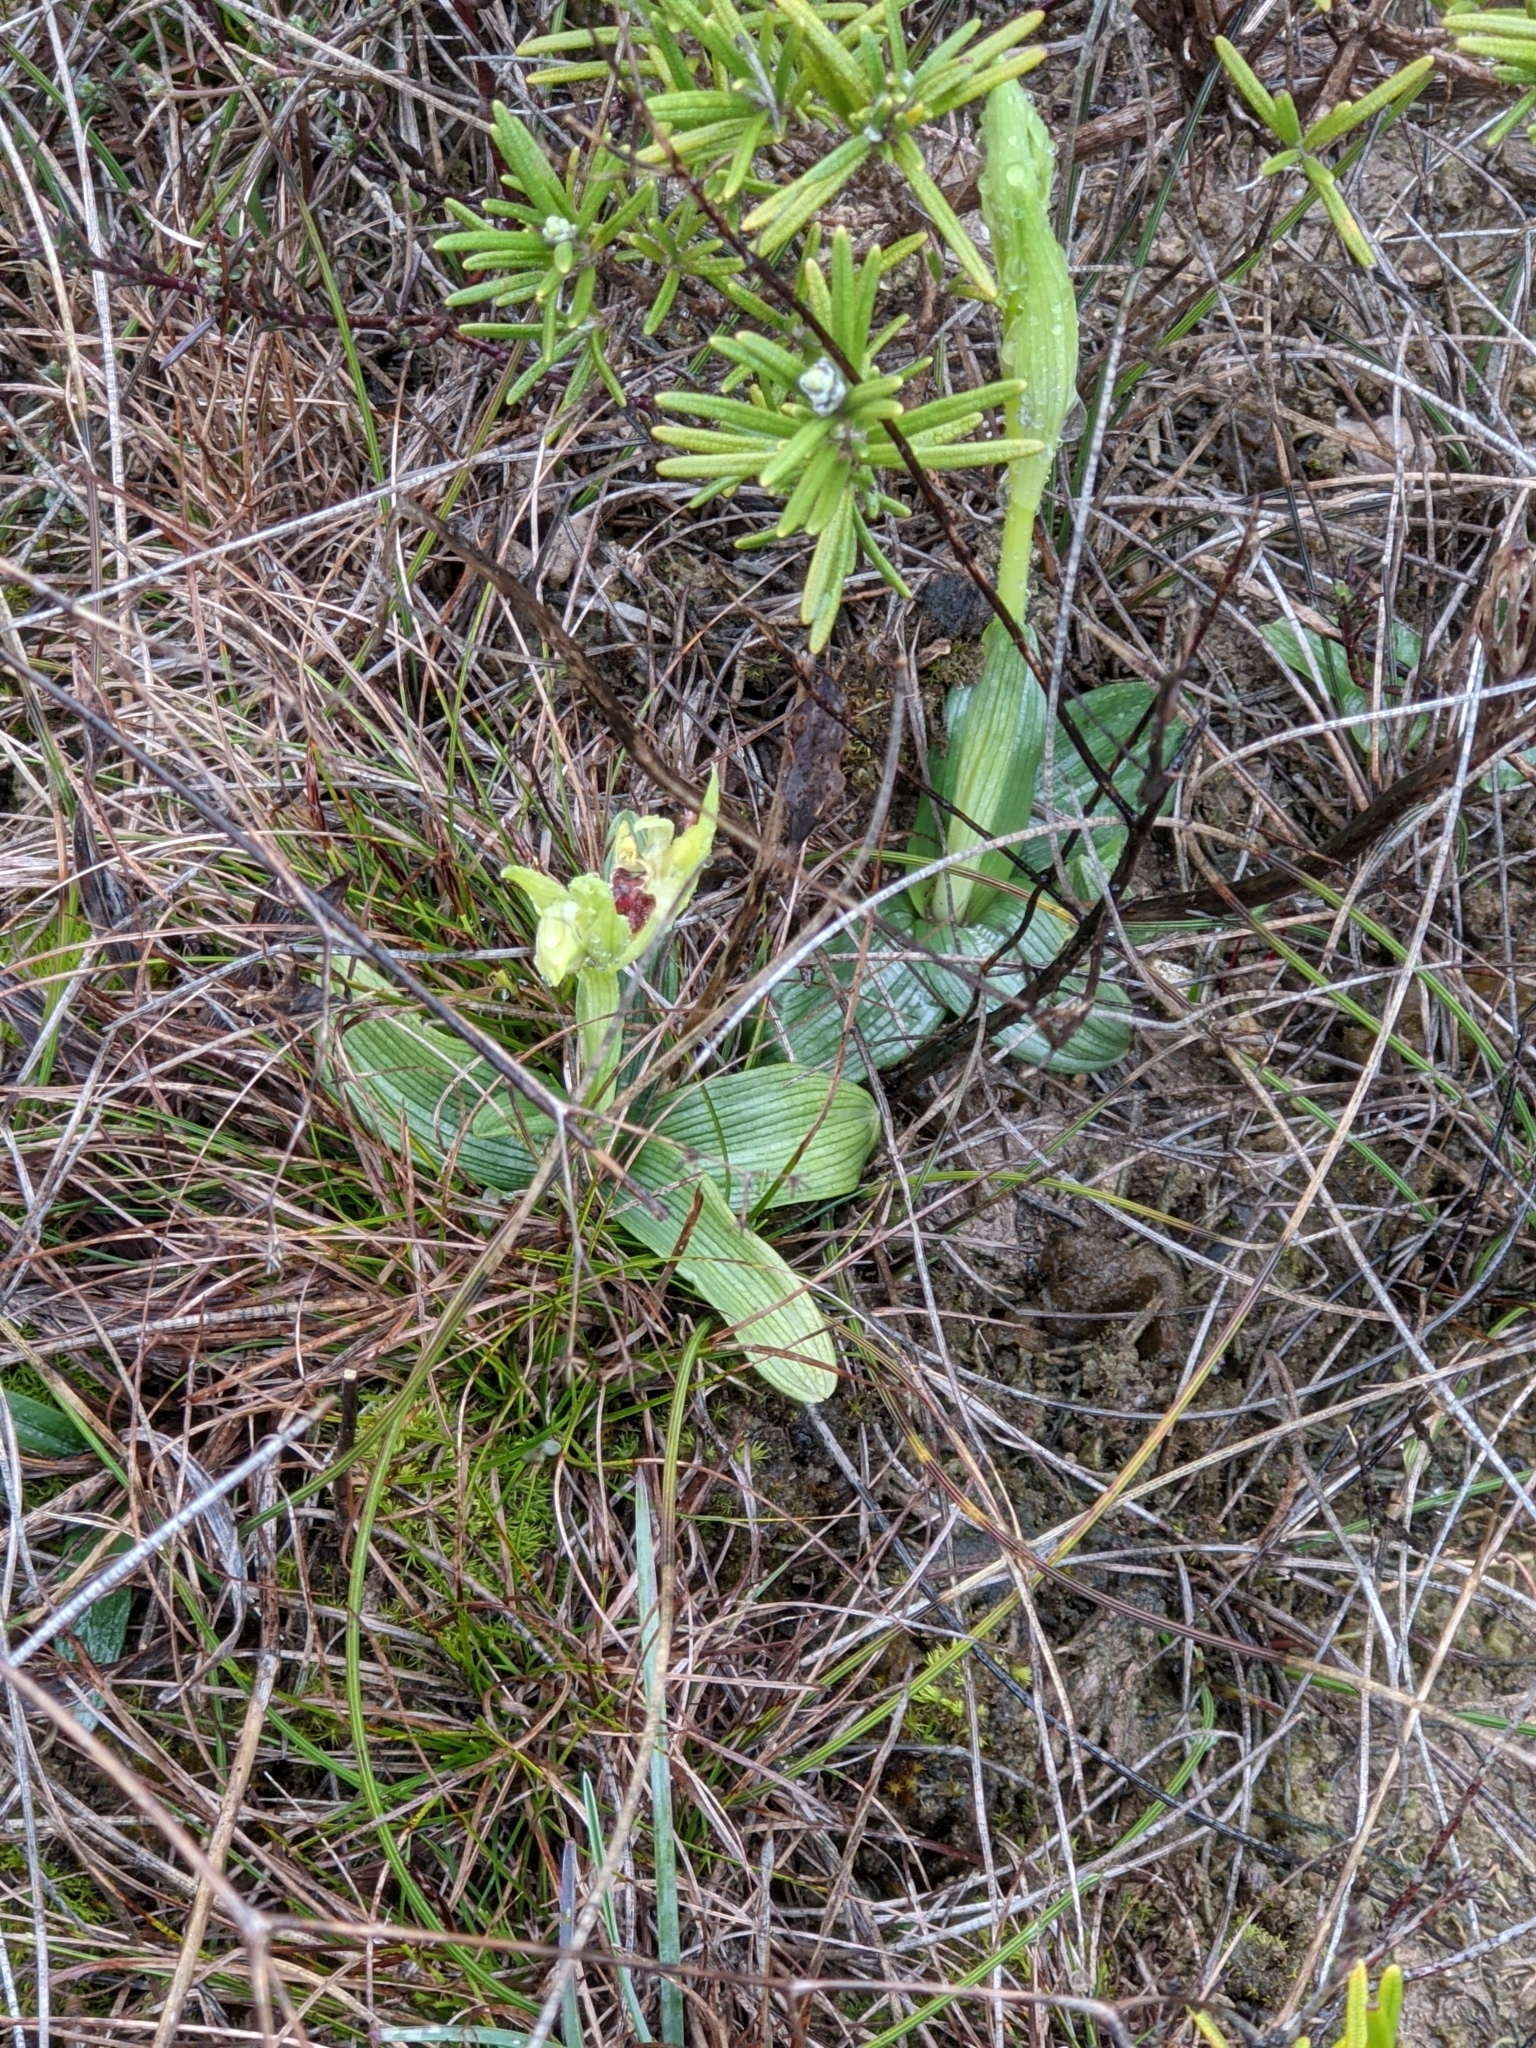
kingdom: Plantae
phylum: Tracheophyta
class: Liliopsida
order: Asparagales
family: Orchidaceae
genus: Ophrys
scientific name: Ophrys sphegodes
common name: Early spider-orchid
